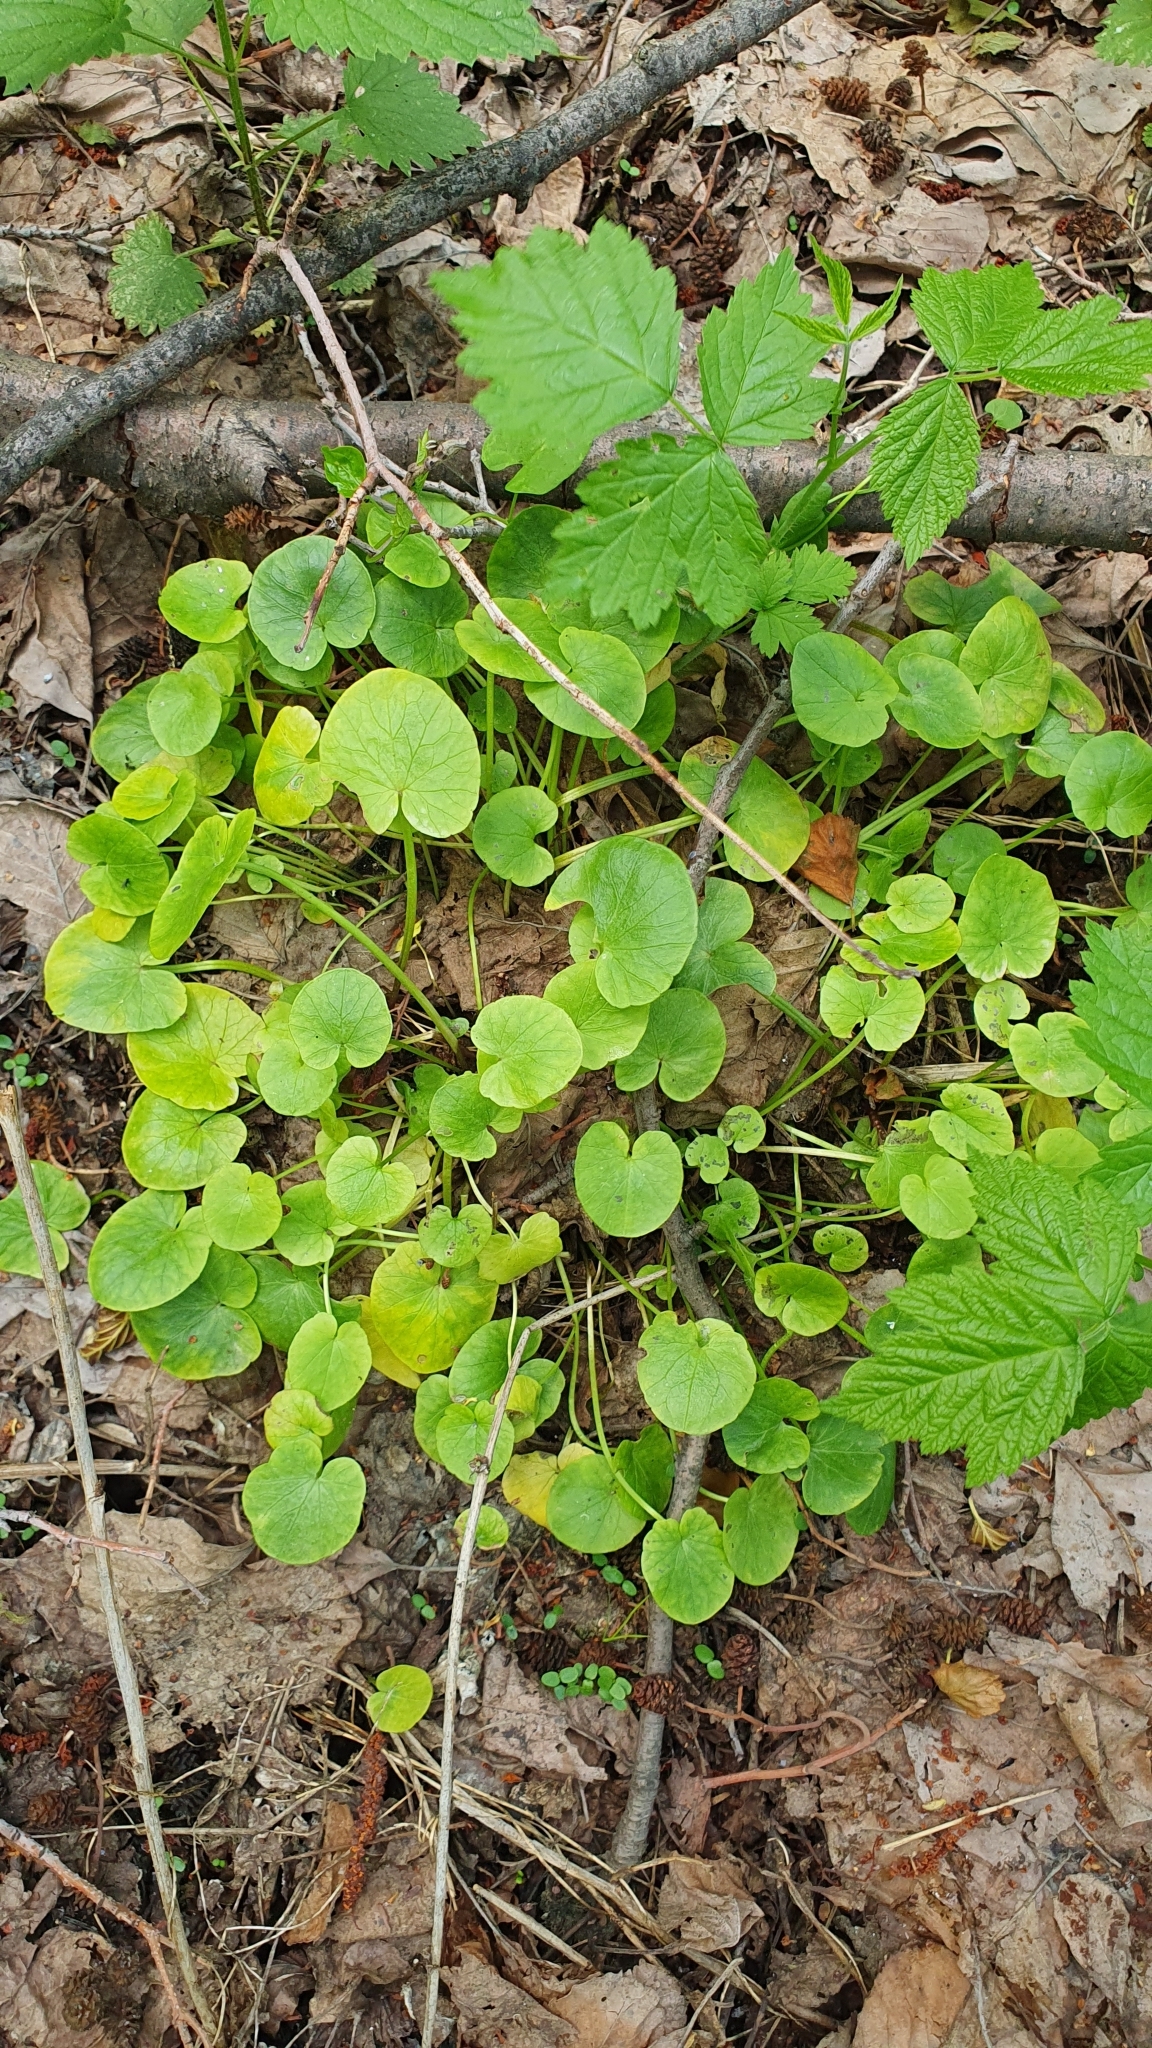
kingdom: Plantae
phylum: Tracheophyta
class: Magnoliopsida
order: Ranunculales
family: Ranunculaceae
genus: Ficaria
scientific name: Ficaria verna
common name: Lesser celandine
